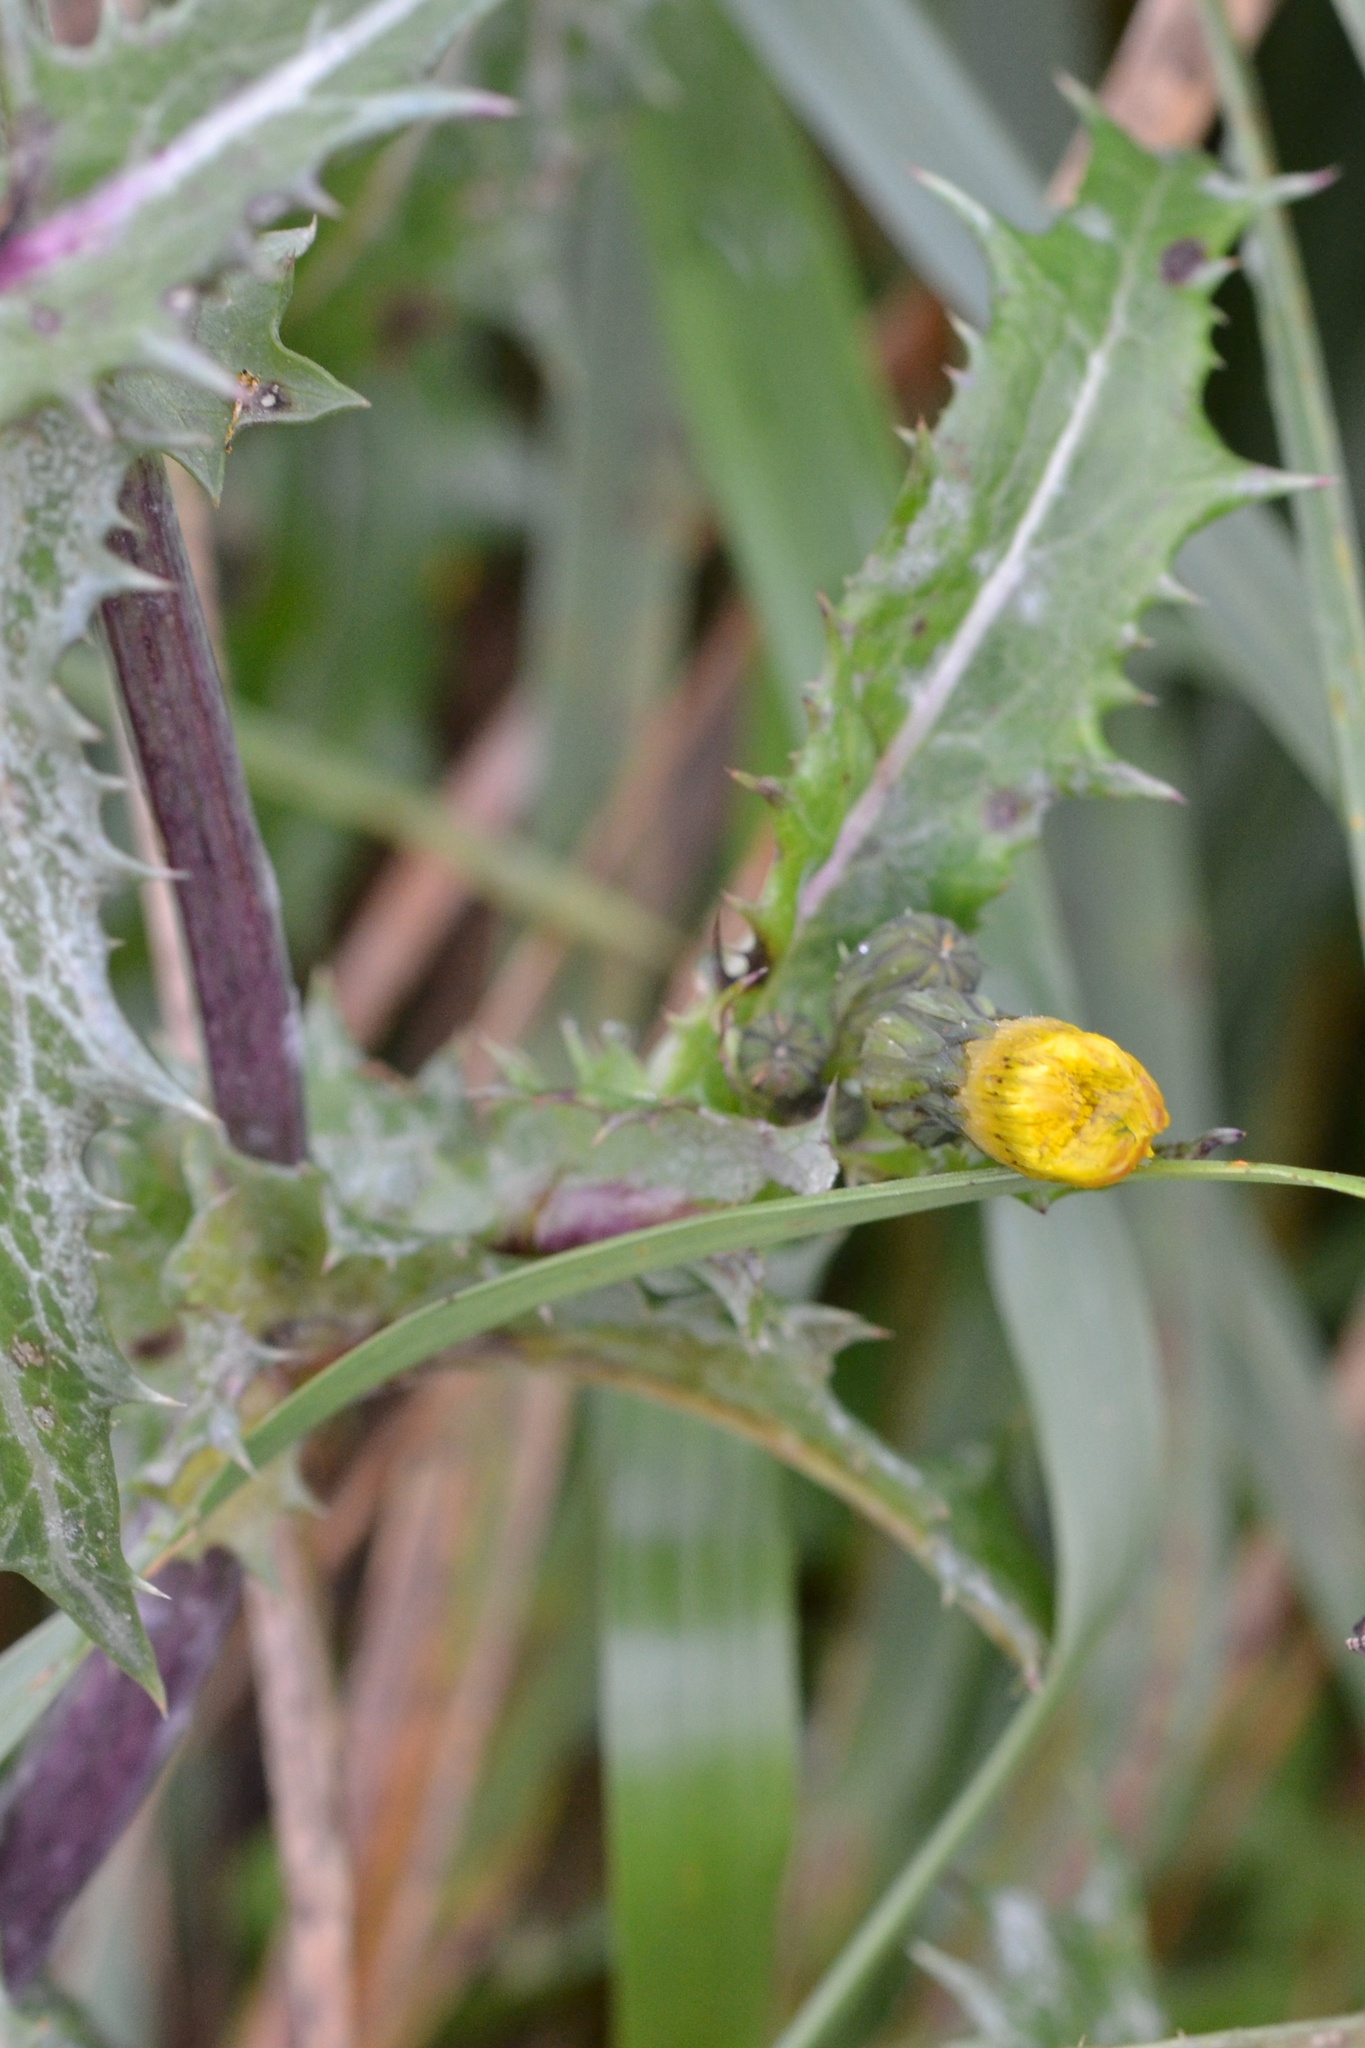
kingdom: Plantae
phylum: Tracheophyta
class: Magnoliopsida
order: Asterales
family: Asteraceae
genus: Sonchus
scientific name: Sonchus asper
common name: Prickly sow-thistle
